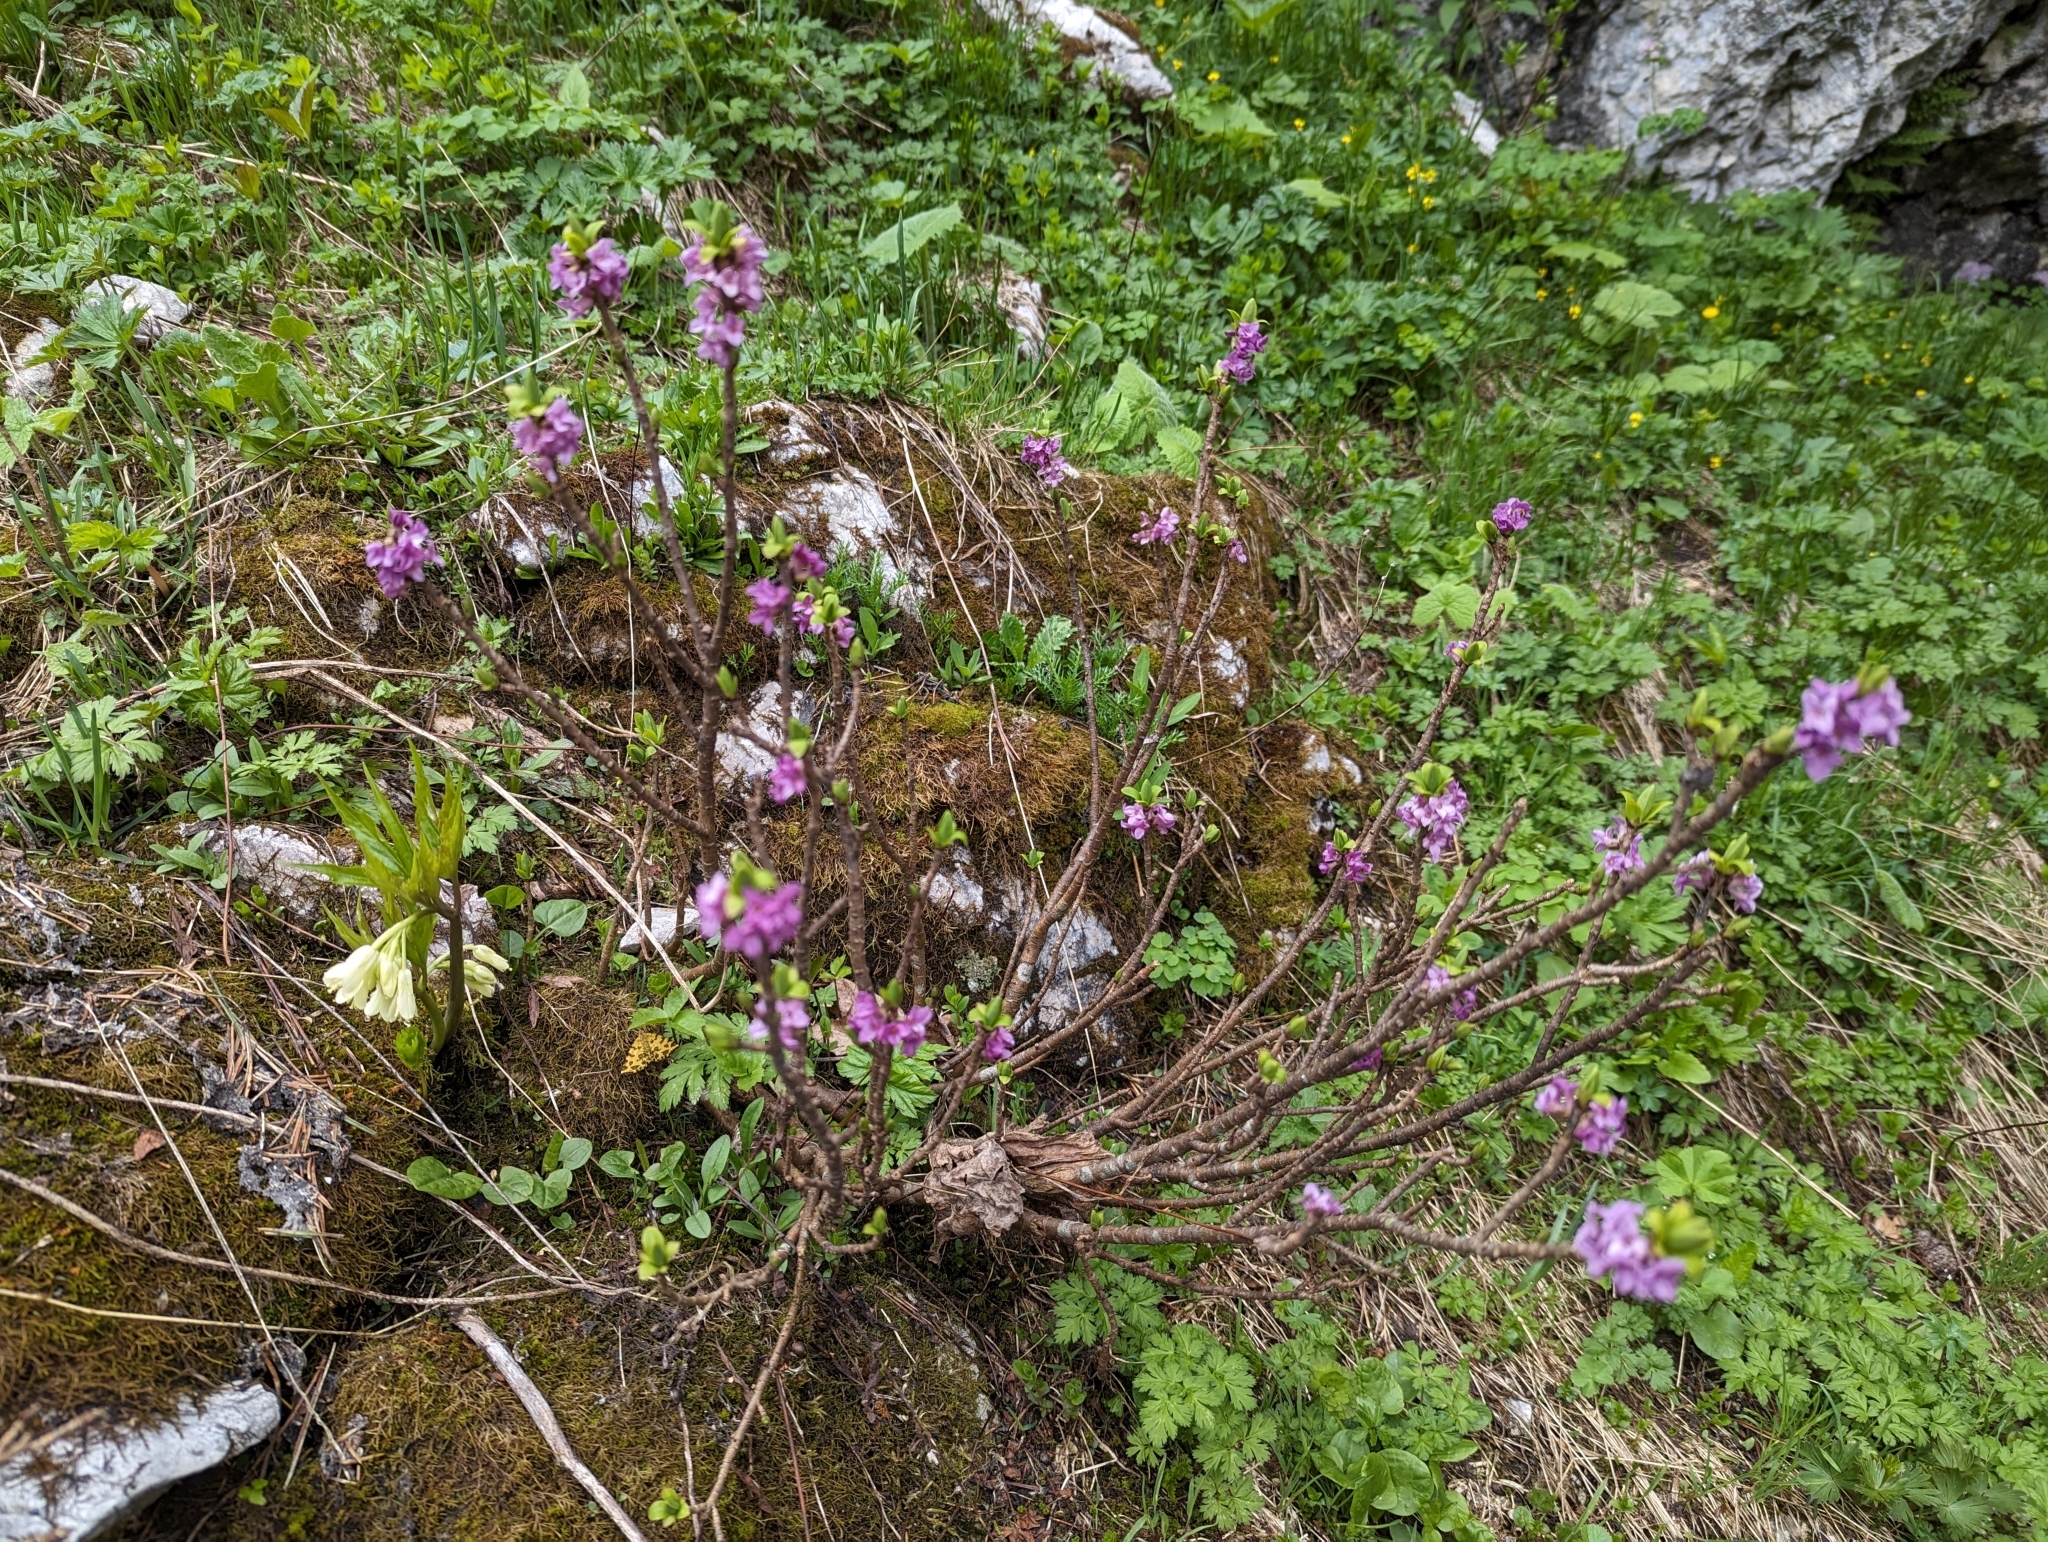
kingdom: Plantae
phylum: Tracheophyta
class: Magnoliopsida
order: Malvales
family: Thymelaeaceae
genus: Daphne
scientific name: Daphne mezereum
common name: Mezereon
